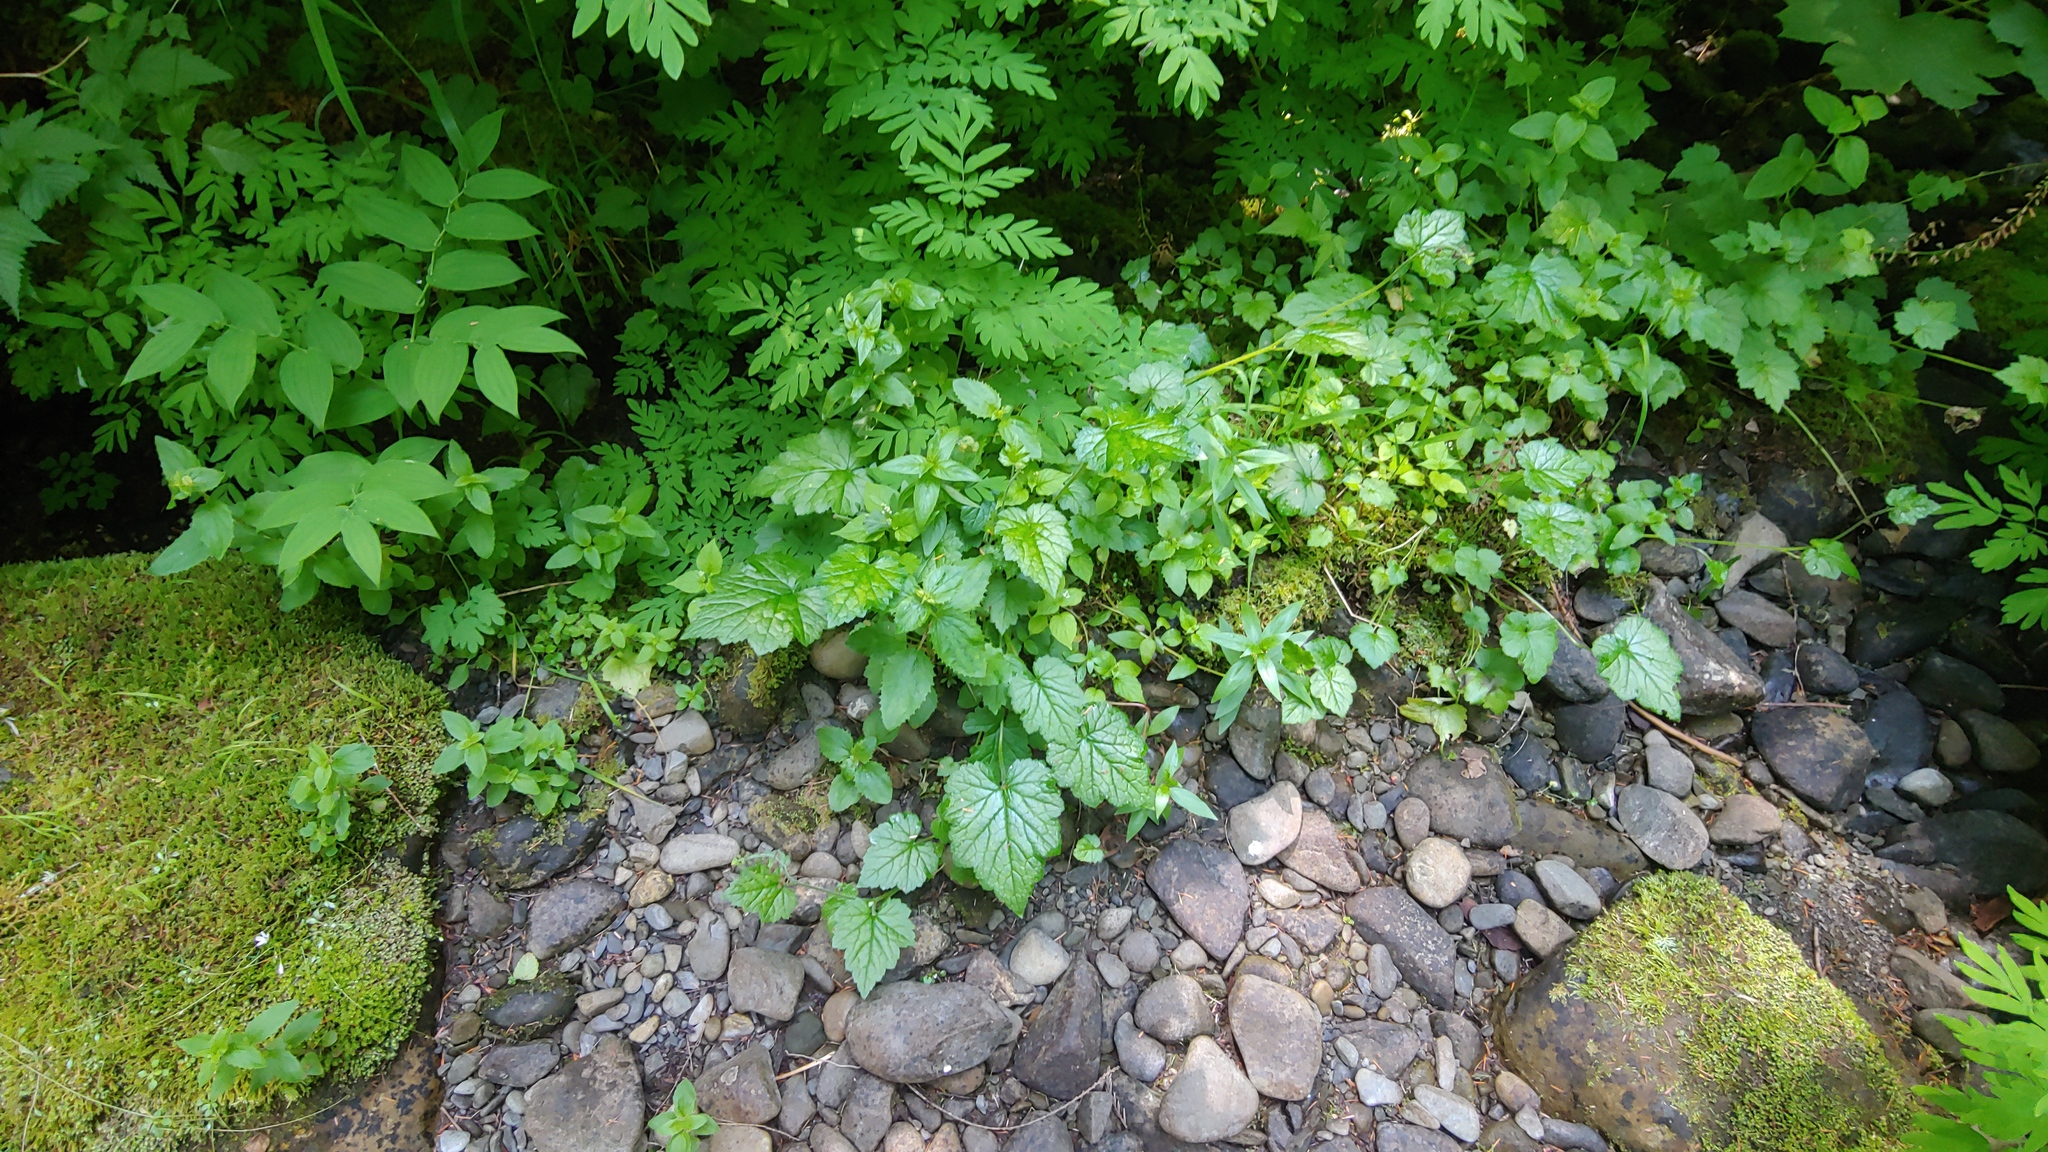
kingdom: Plantae
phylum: Tracheophyta
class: Magnoliopsida
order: Saxifragales
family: Saxifragaceae
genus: Tolmiea
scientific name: Tolmiea menziesii
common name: Pick-a-back-plant
